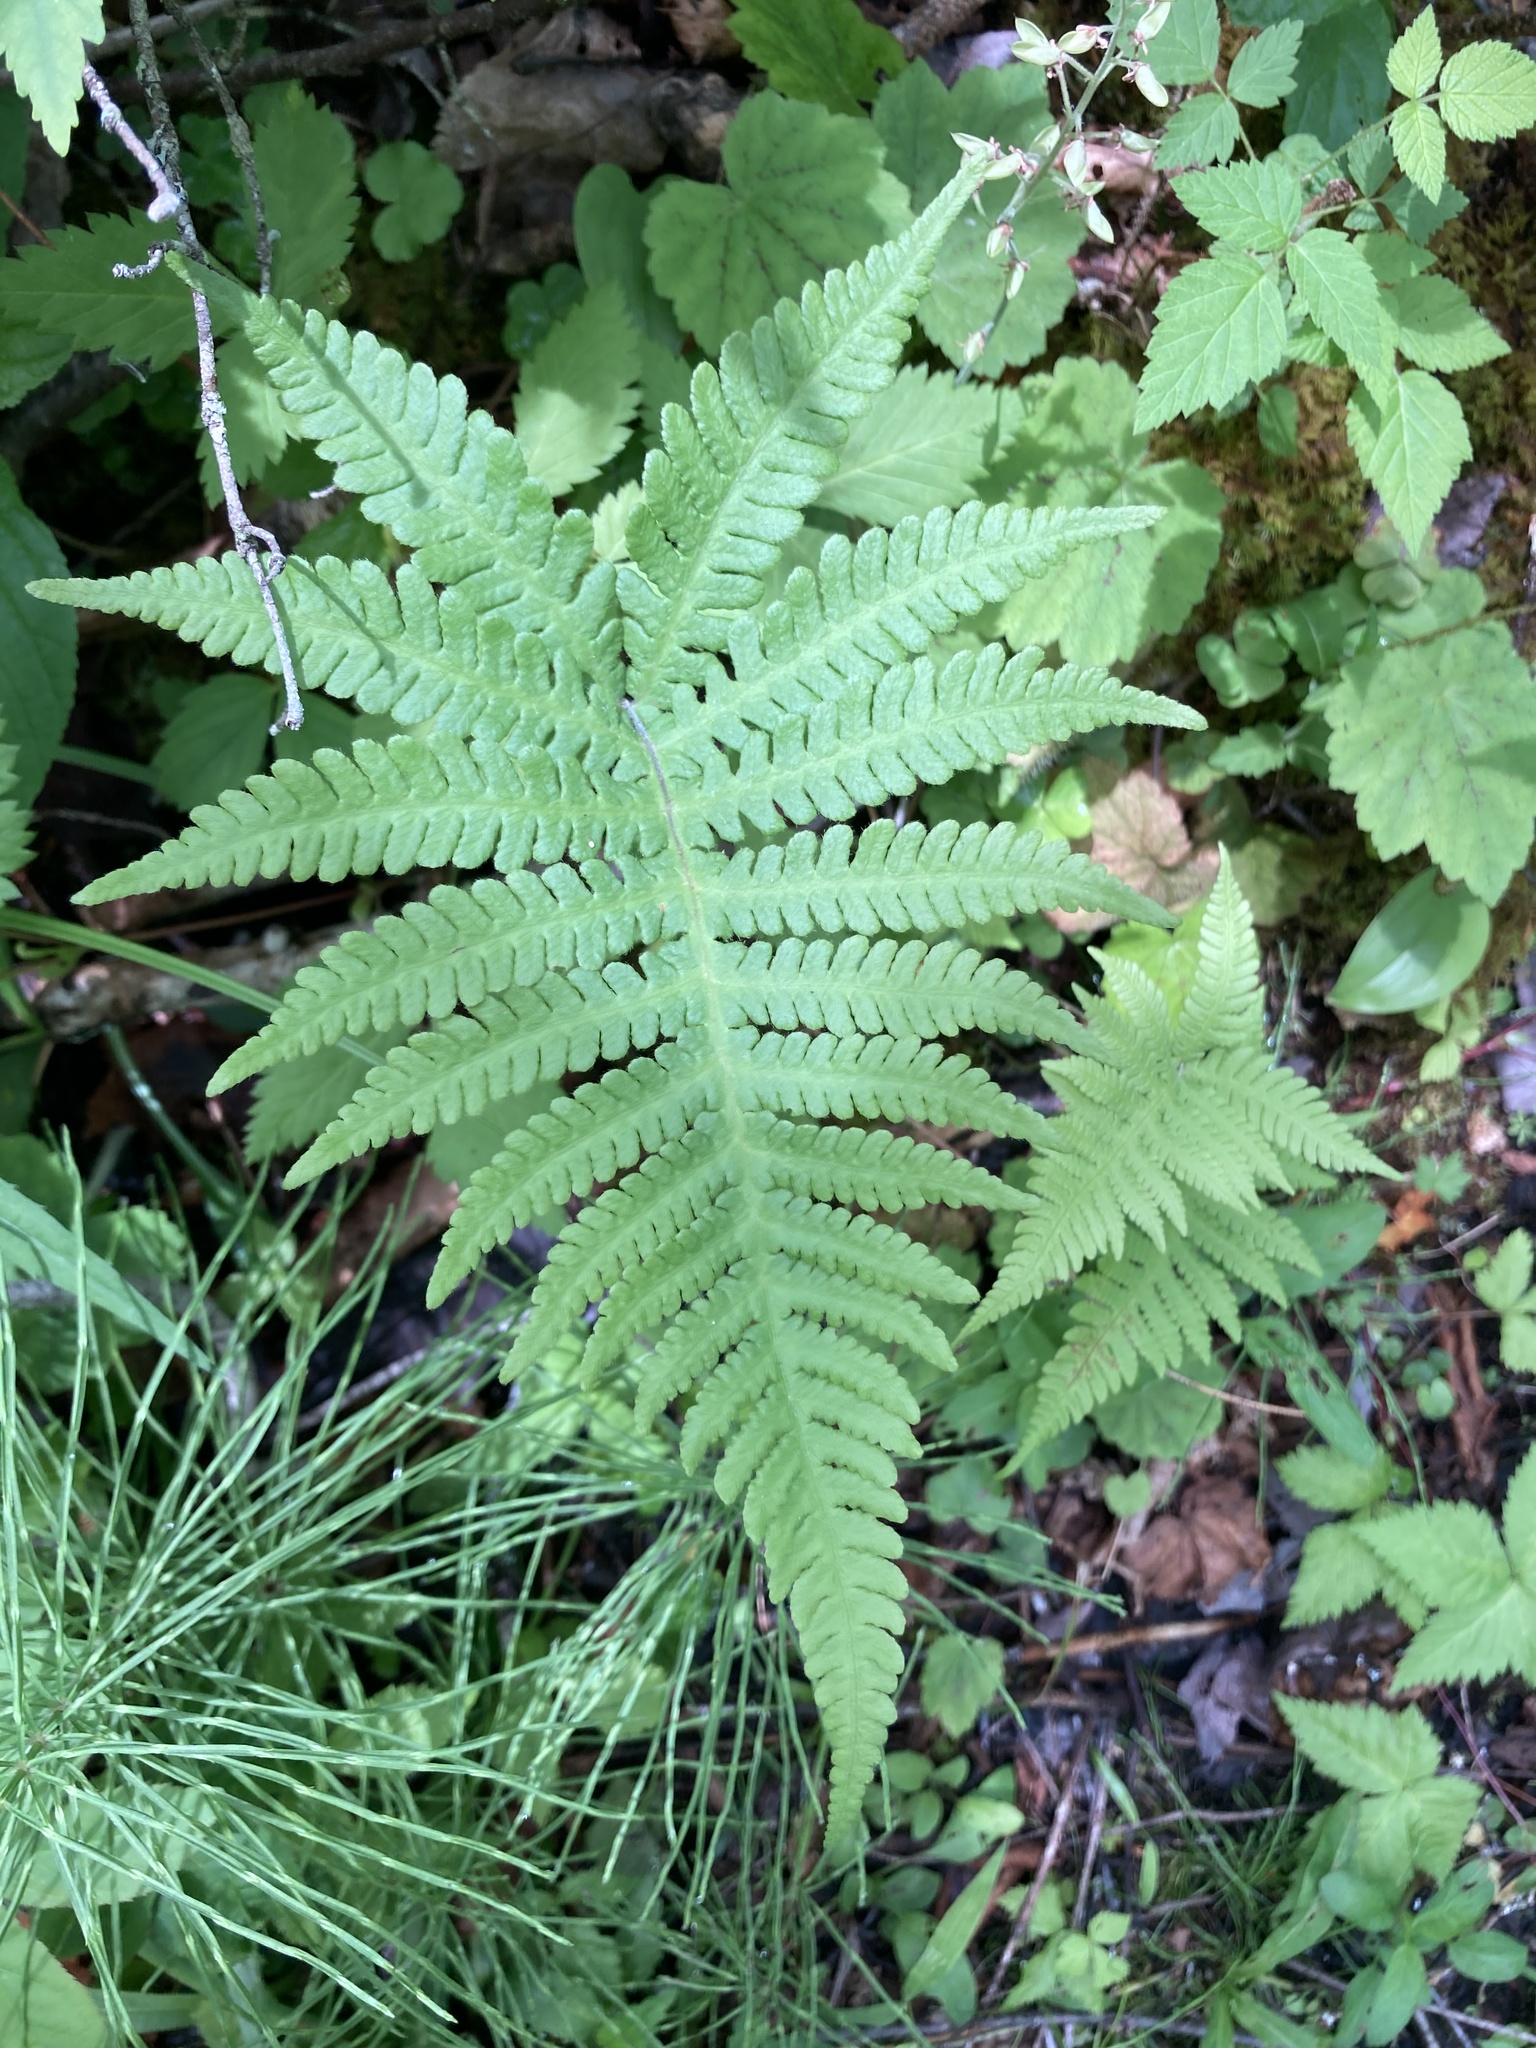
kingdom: Plantae
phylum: Tracheophyta
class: Polypodiopsida
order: Polypodiales
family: Thelypteridaceae
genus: Phegopteris
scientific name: Phegopteris connectilis
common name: Beech fern
